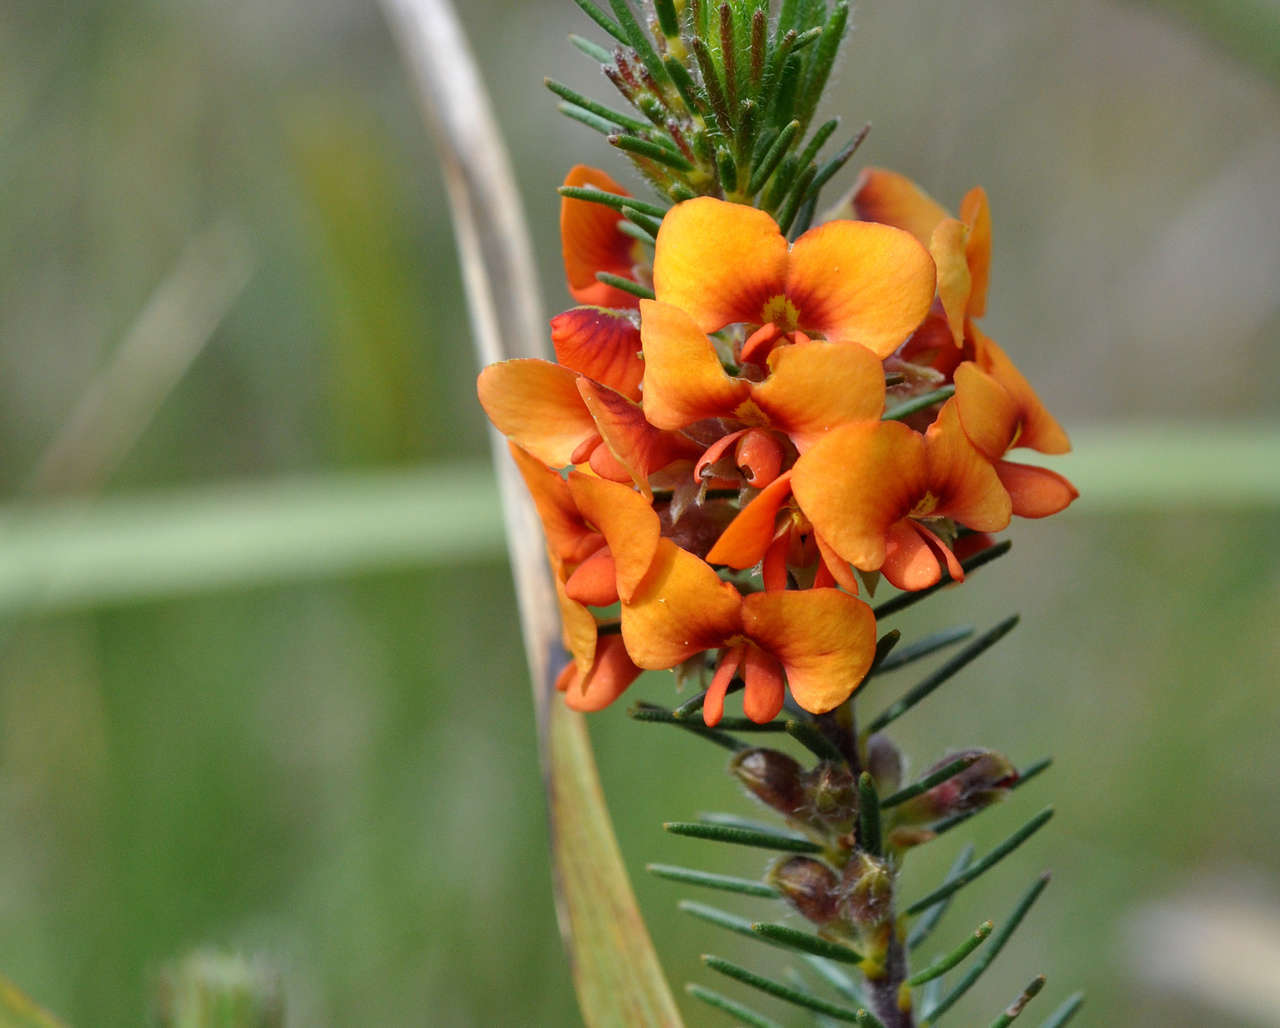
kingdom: Plantae
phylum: Tracheophyta
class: Magnoliopsida
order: Fabales
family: Fabaceae
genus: Dillwynia
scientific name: Dillwynia sericea
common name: Showy parrot-pea
